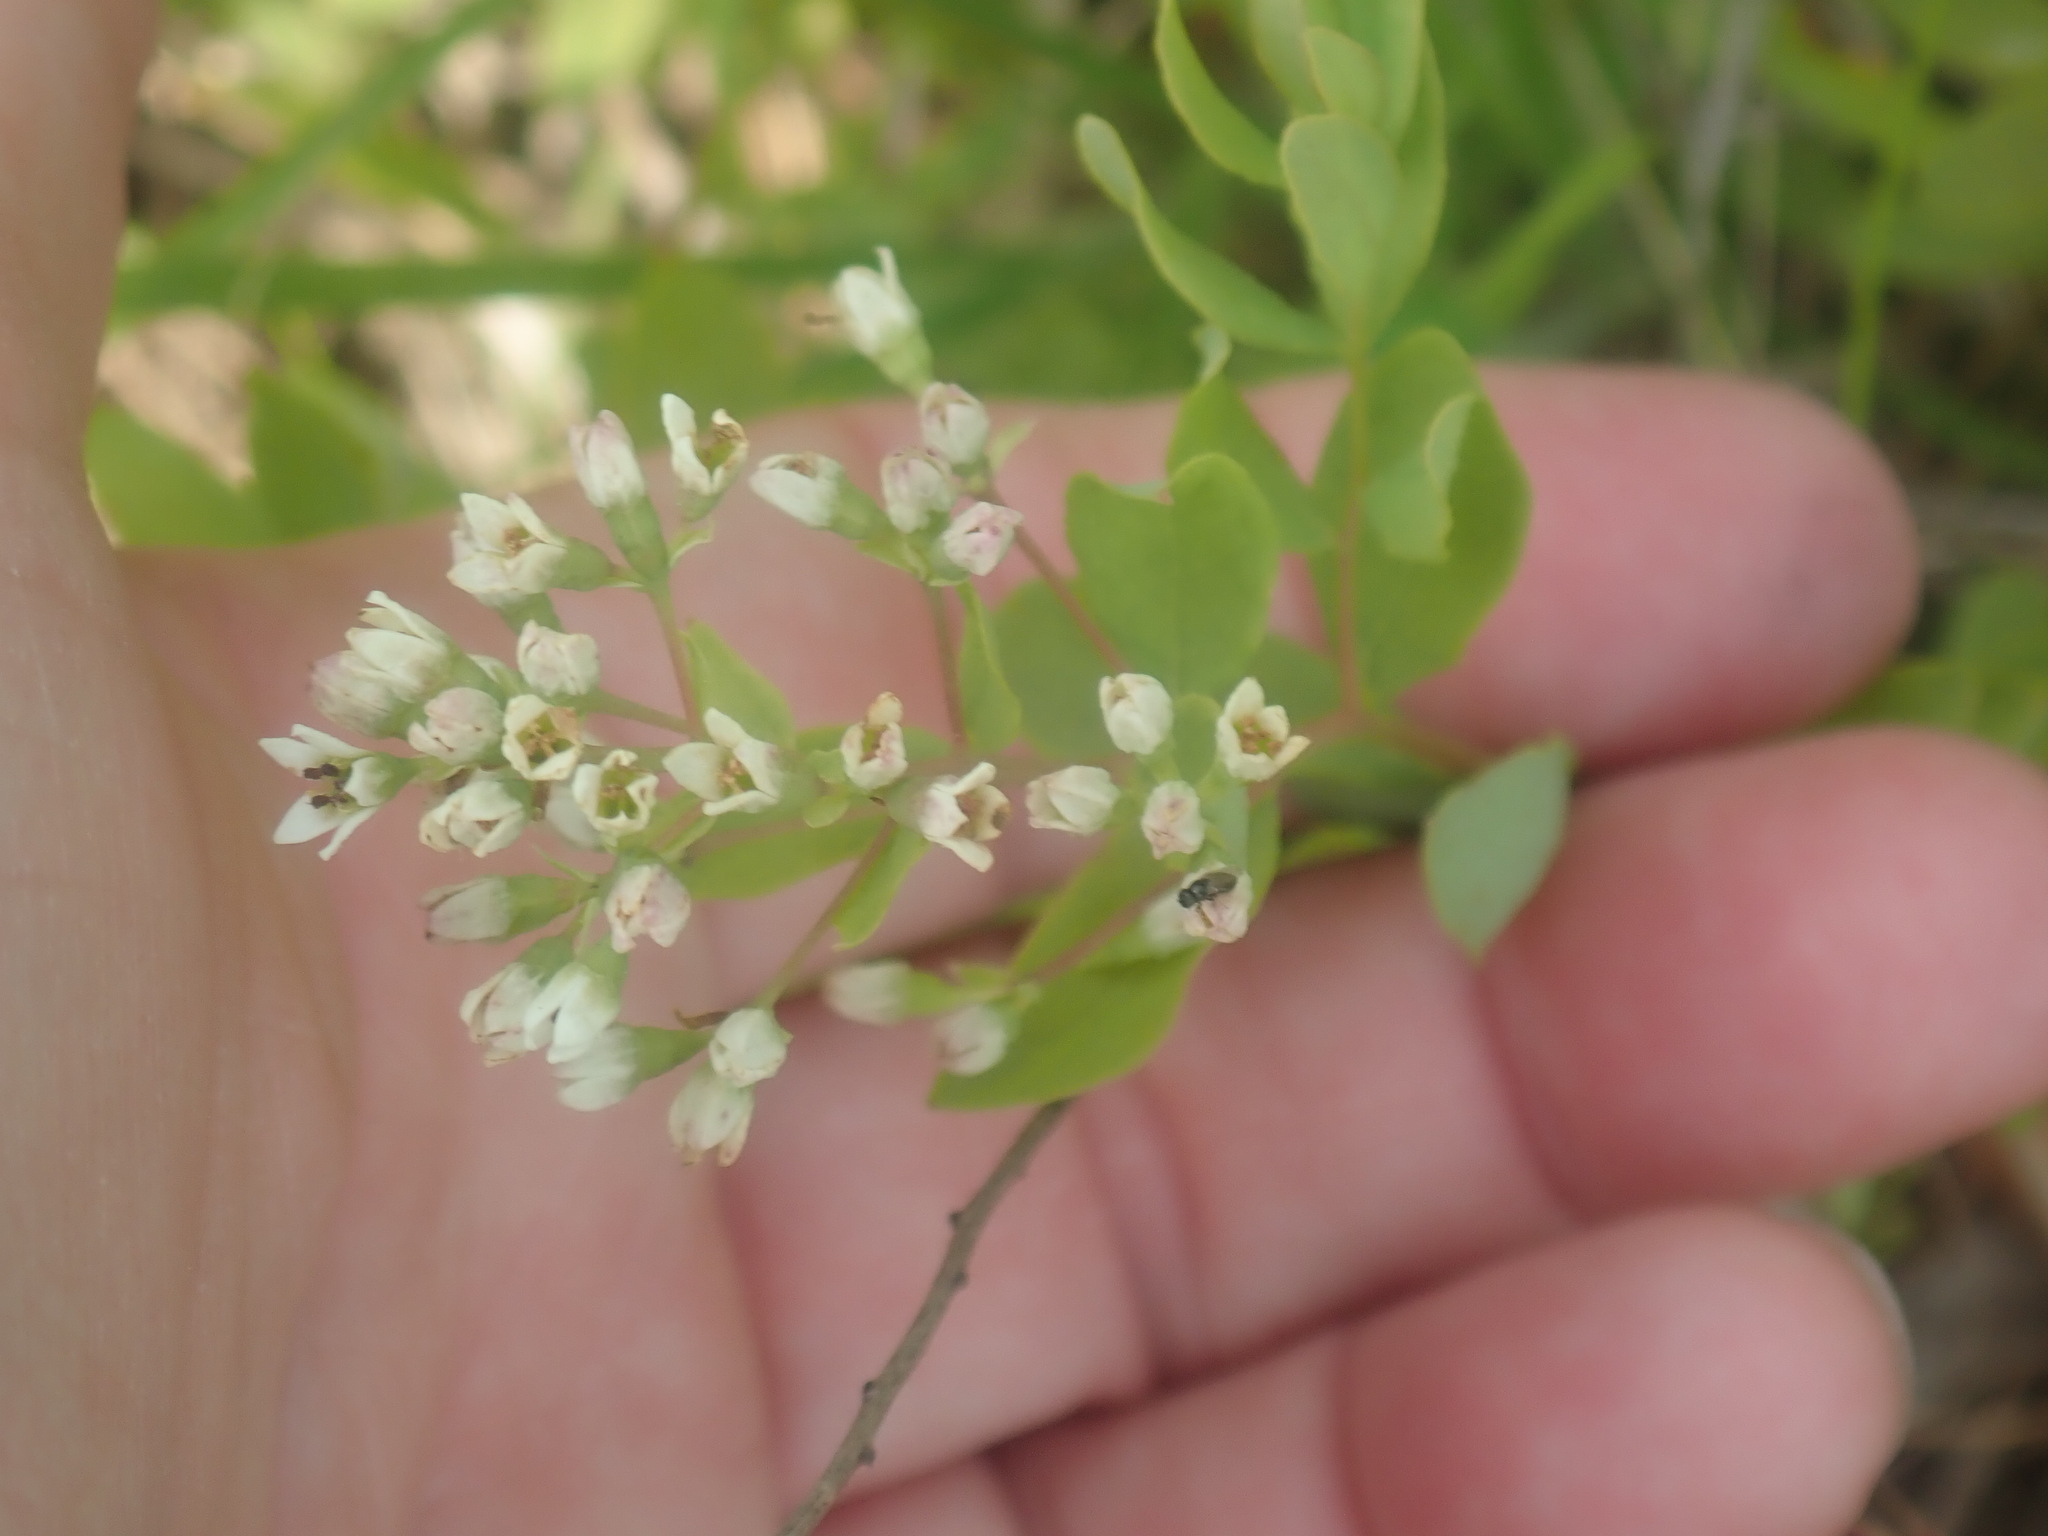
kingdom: Plantae
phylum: Tracheophyta
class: Magnoliopsida
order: Santalales
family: Comandraceae
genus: Comandra
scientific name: Comandra umbellata
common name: Bastard toadflax
